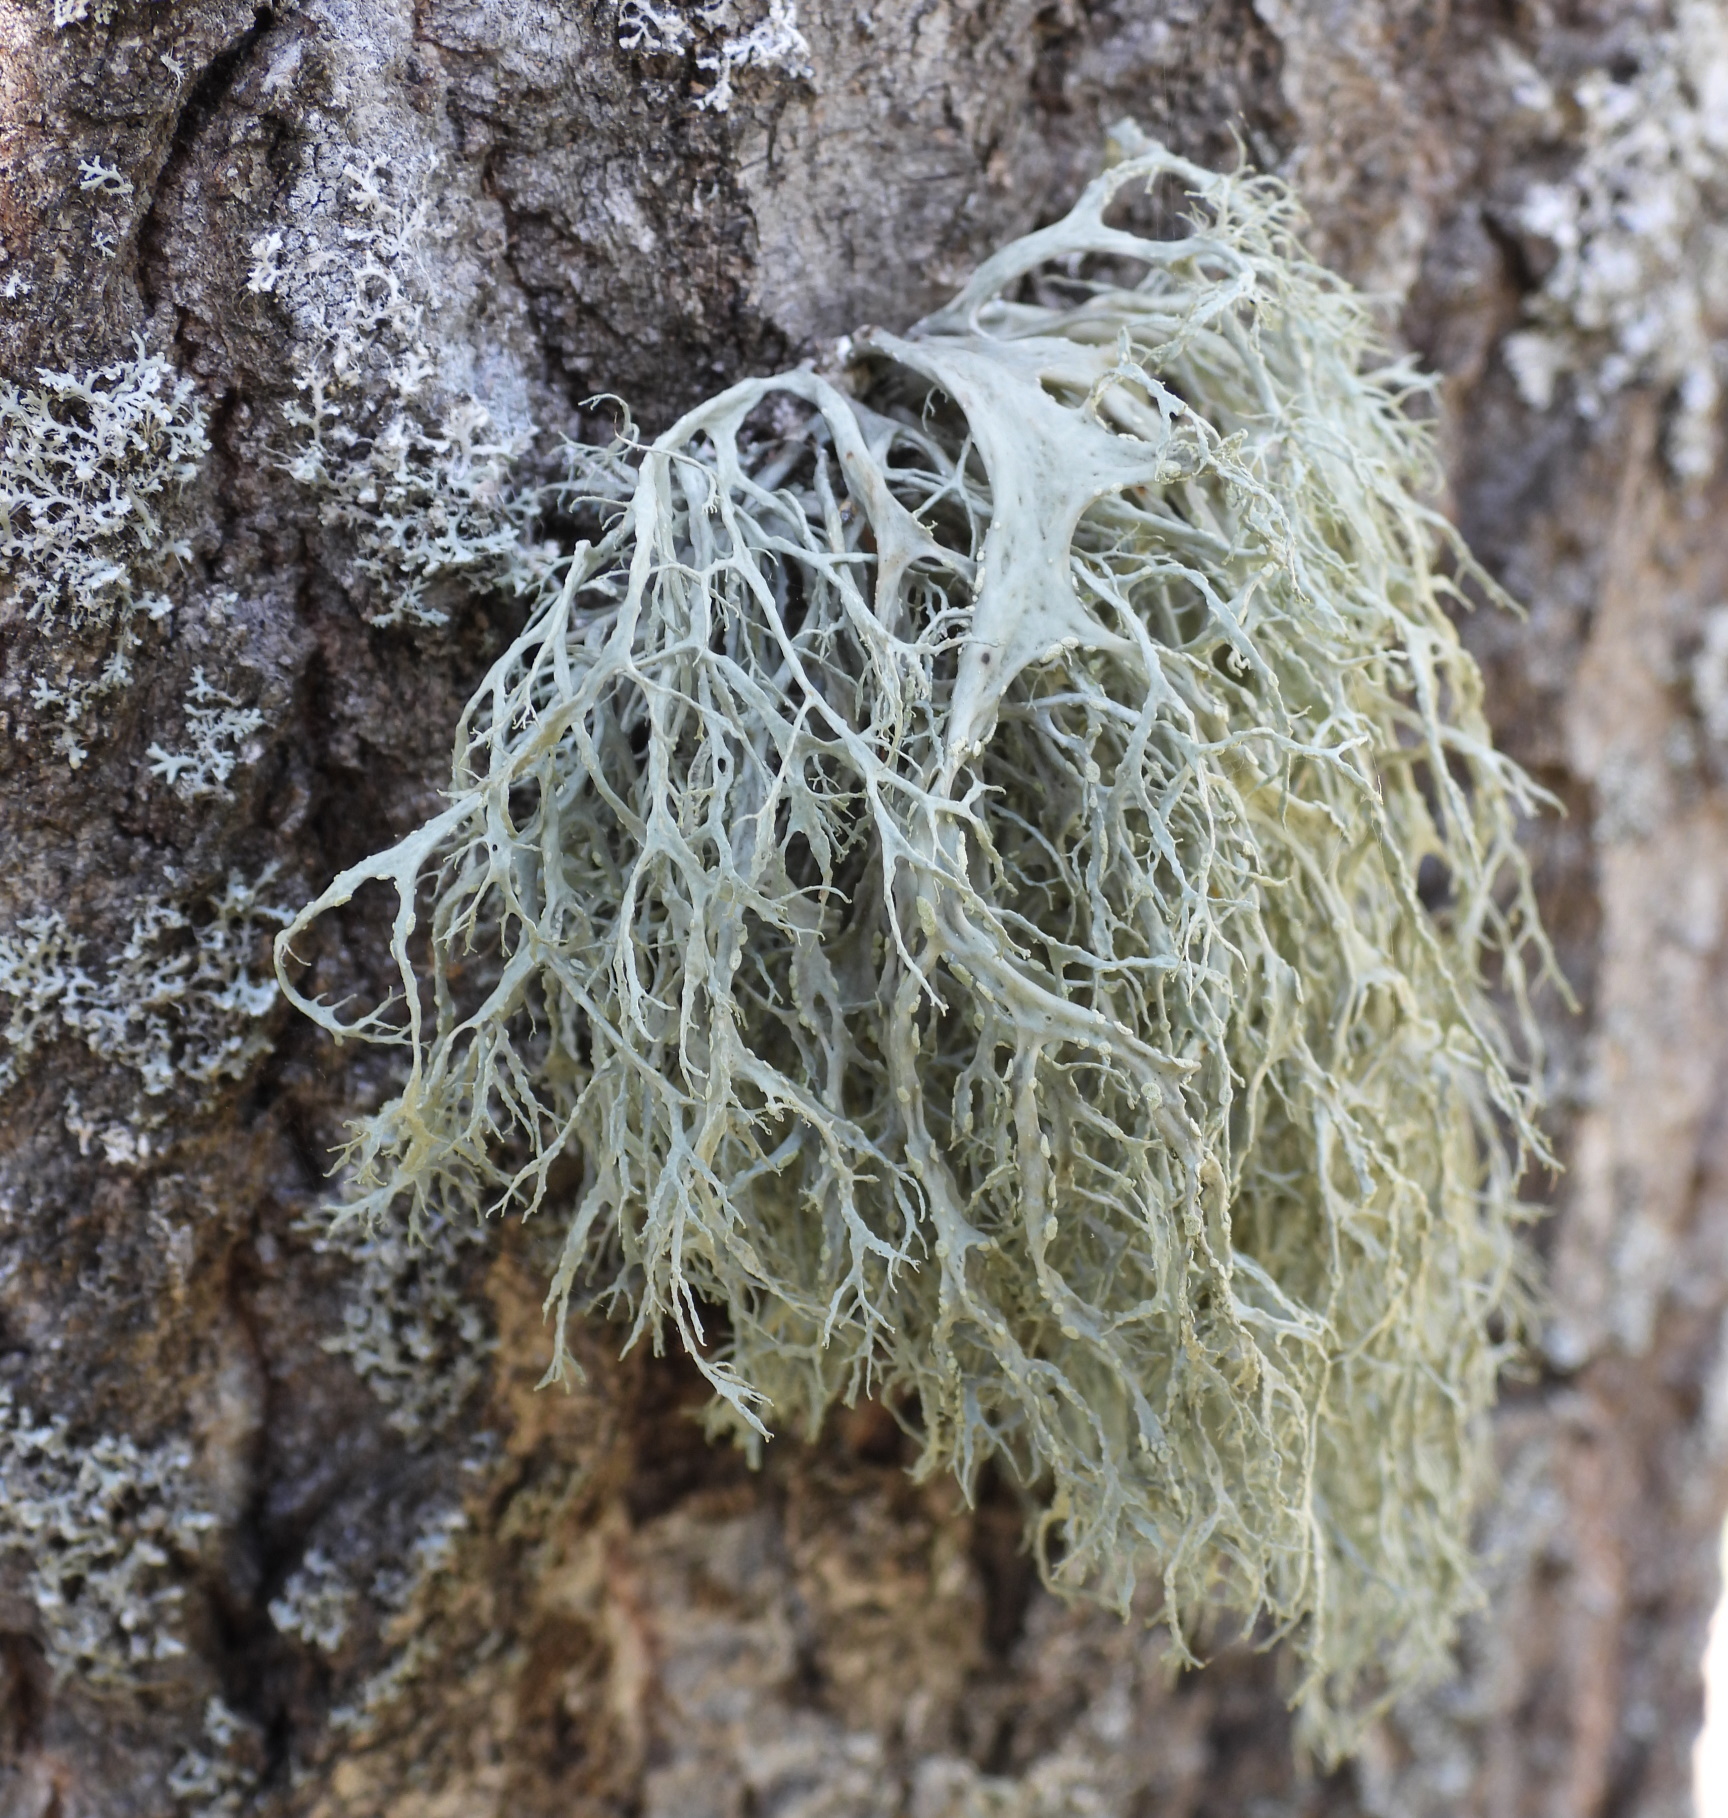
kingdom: Fungi
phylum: Ascomycota
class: Lecanoromycetes
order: Lecanorales
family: Ramalinaceae
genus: Ramalina
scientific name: Ramalina farinacea
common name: Farinose cartilage lichen
